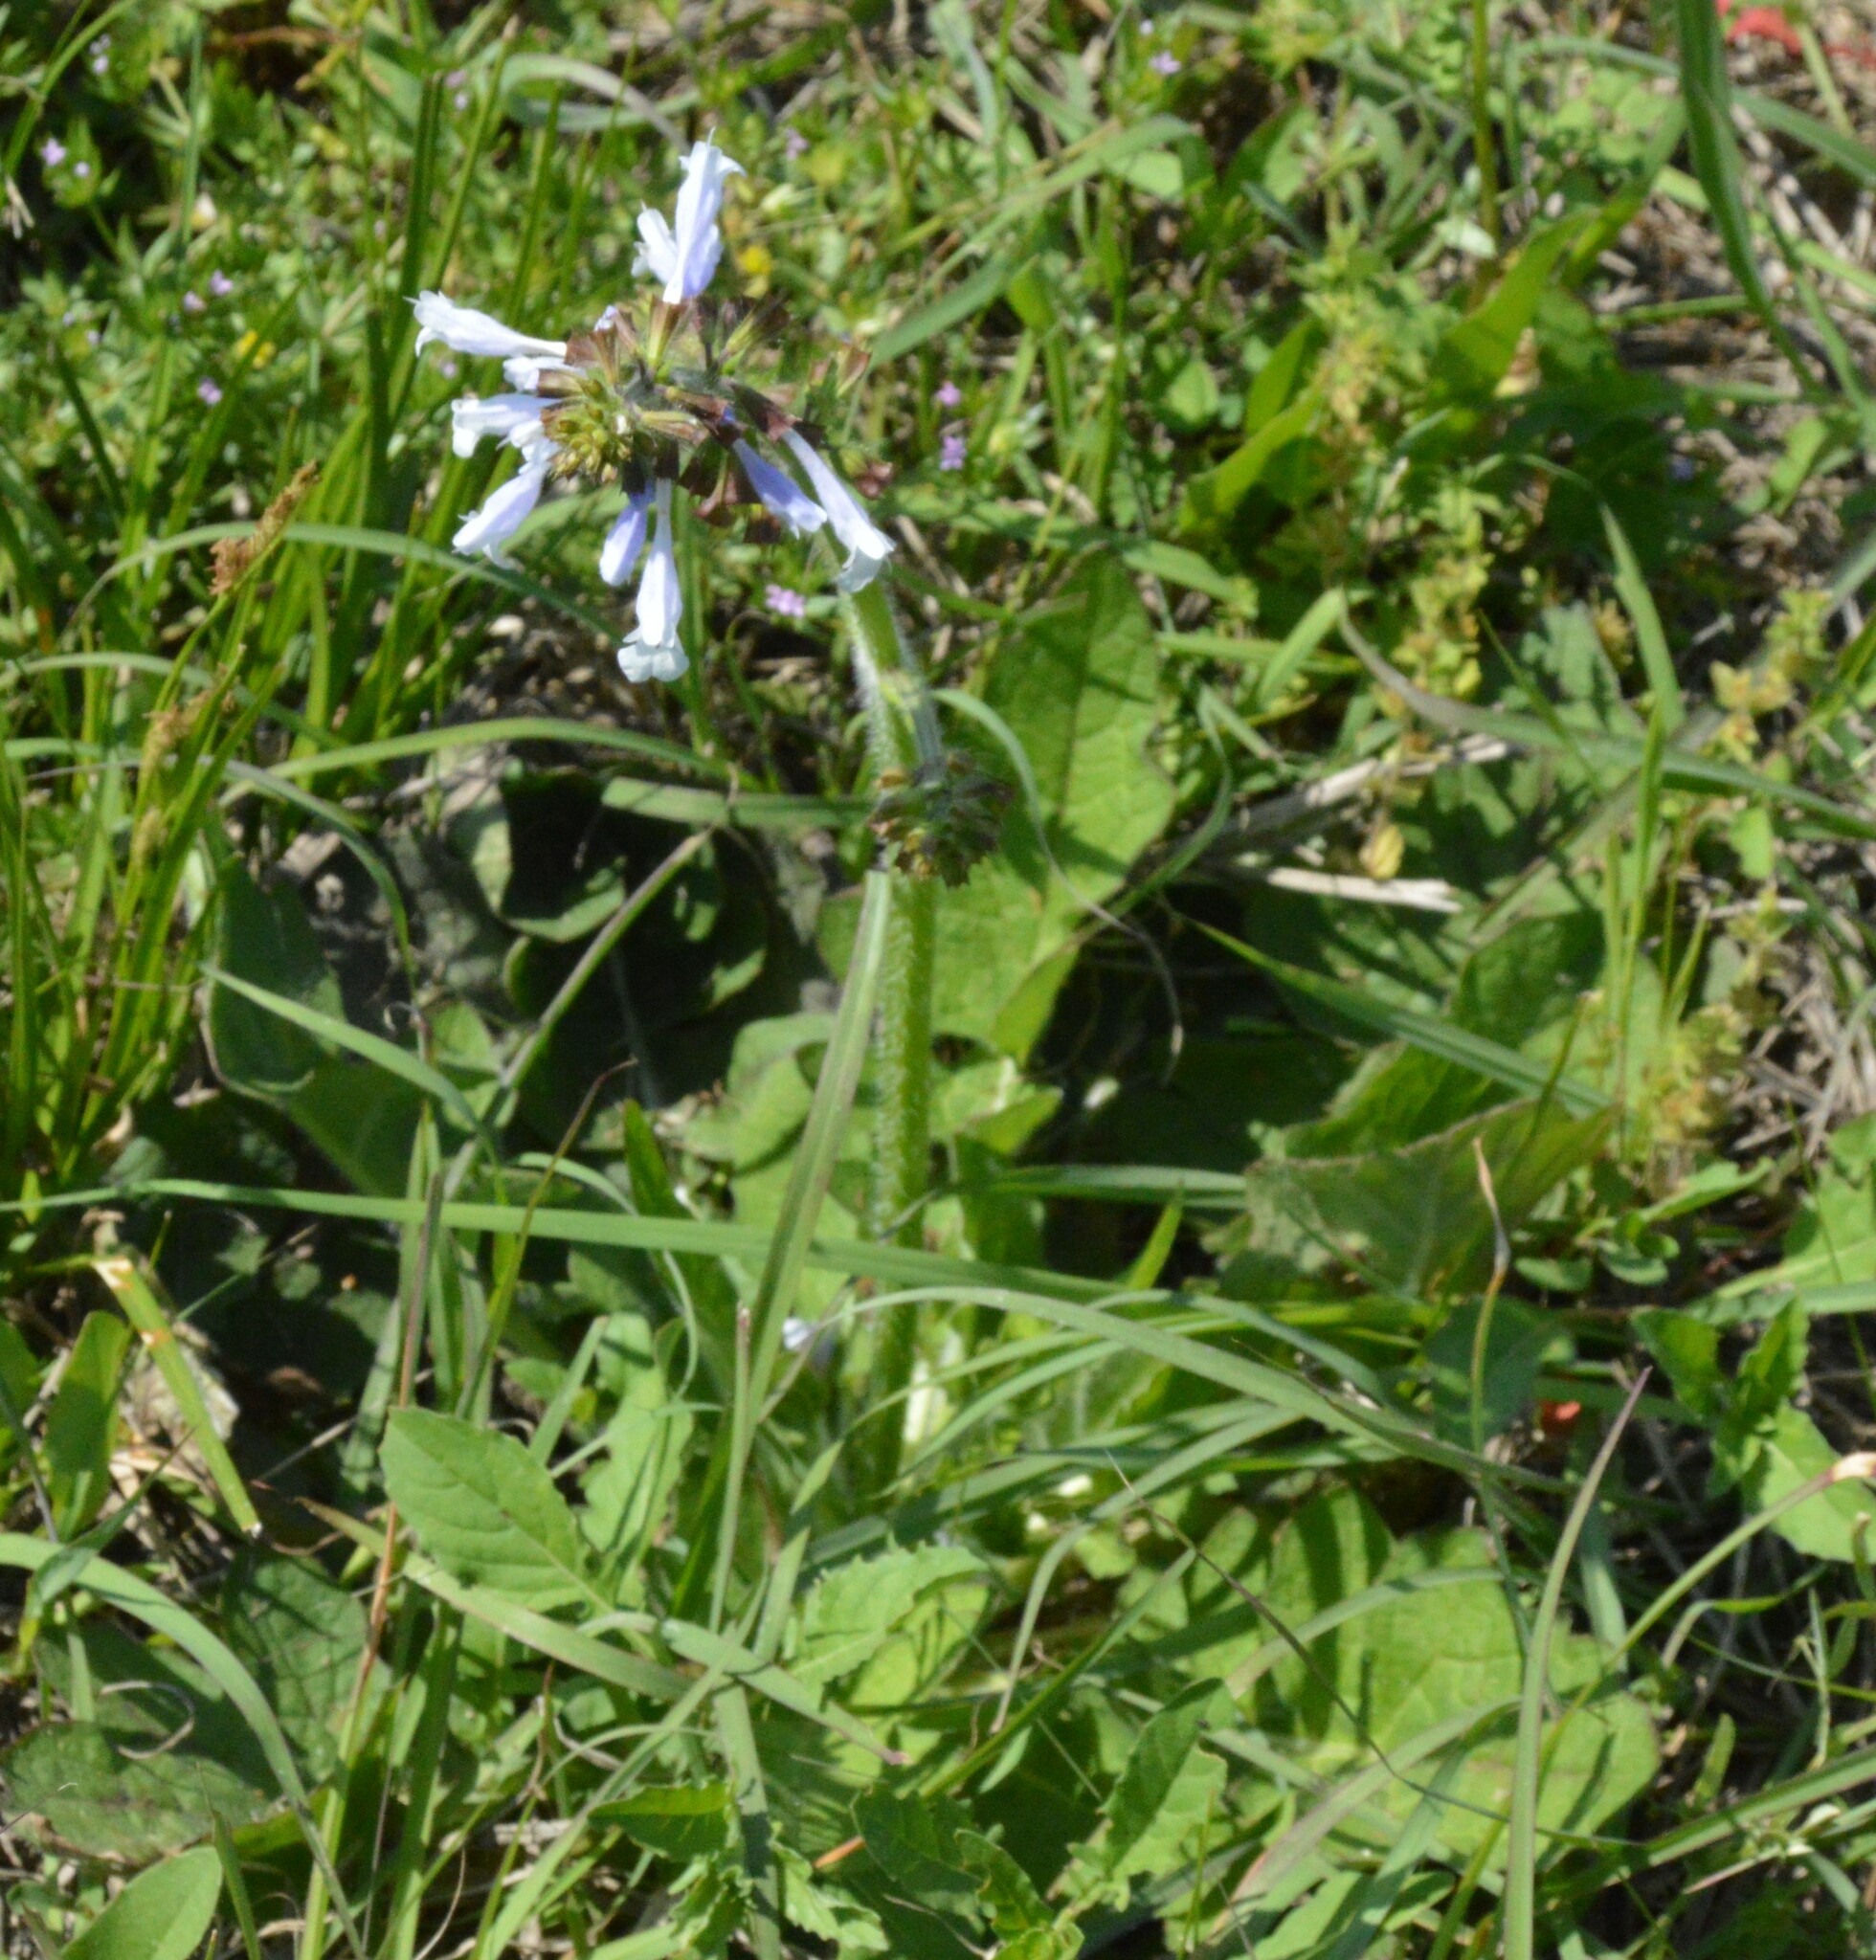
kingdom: Plantae
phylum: Tracheophyta
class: Magnoliopsida
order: Lamiales
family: Lamiaceae
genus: Salvia
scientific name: Salvia lyrata
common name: Cancerweed
